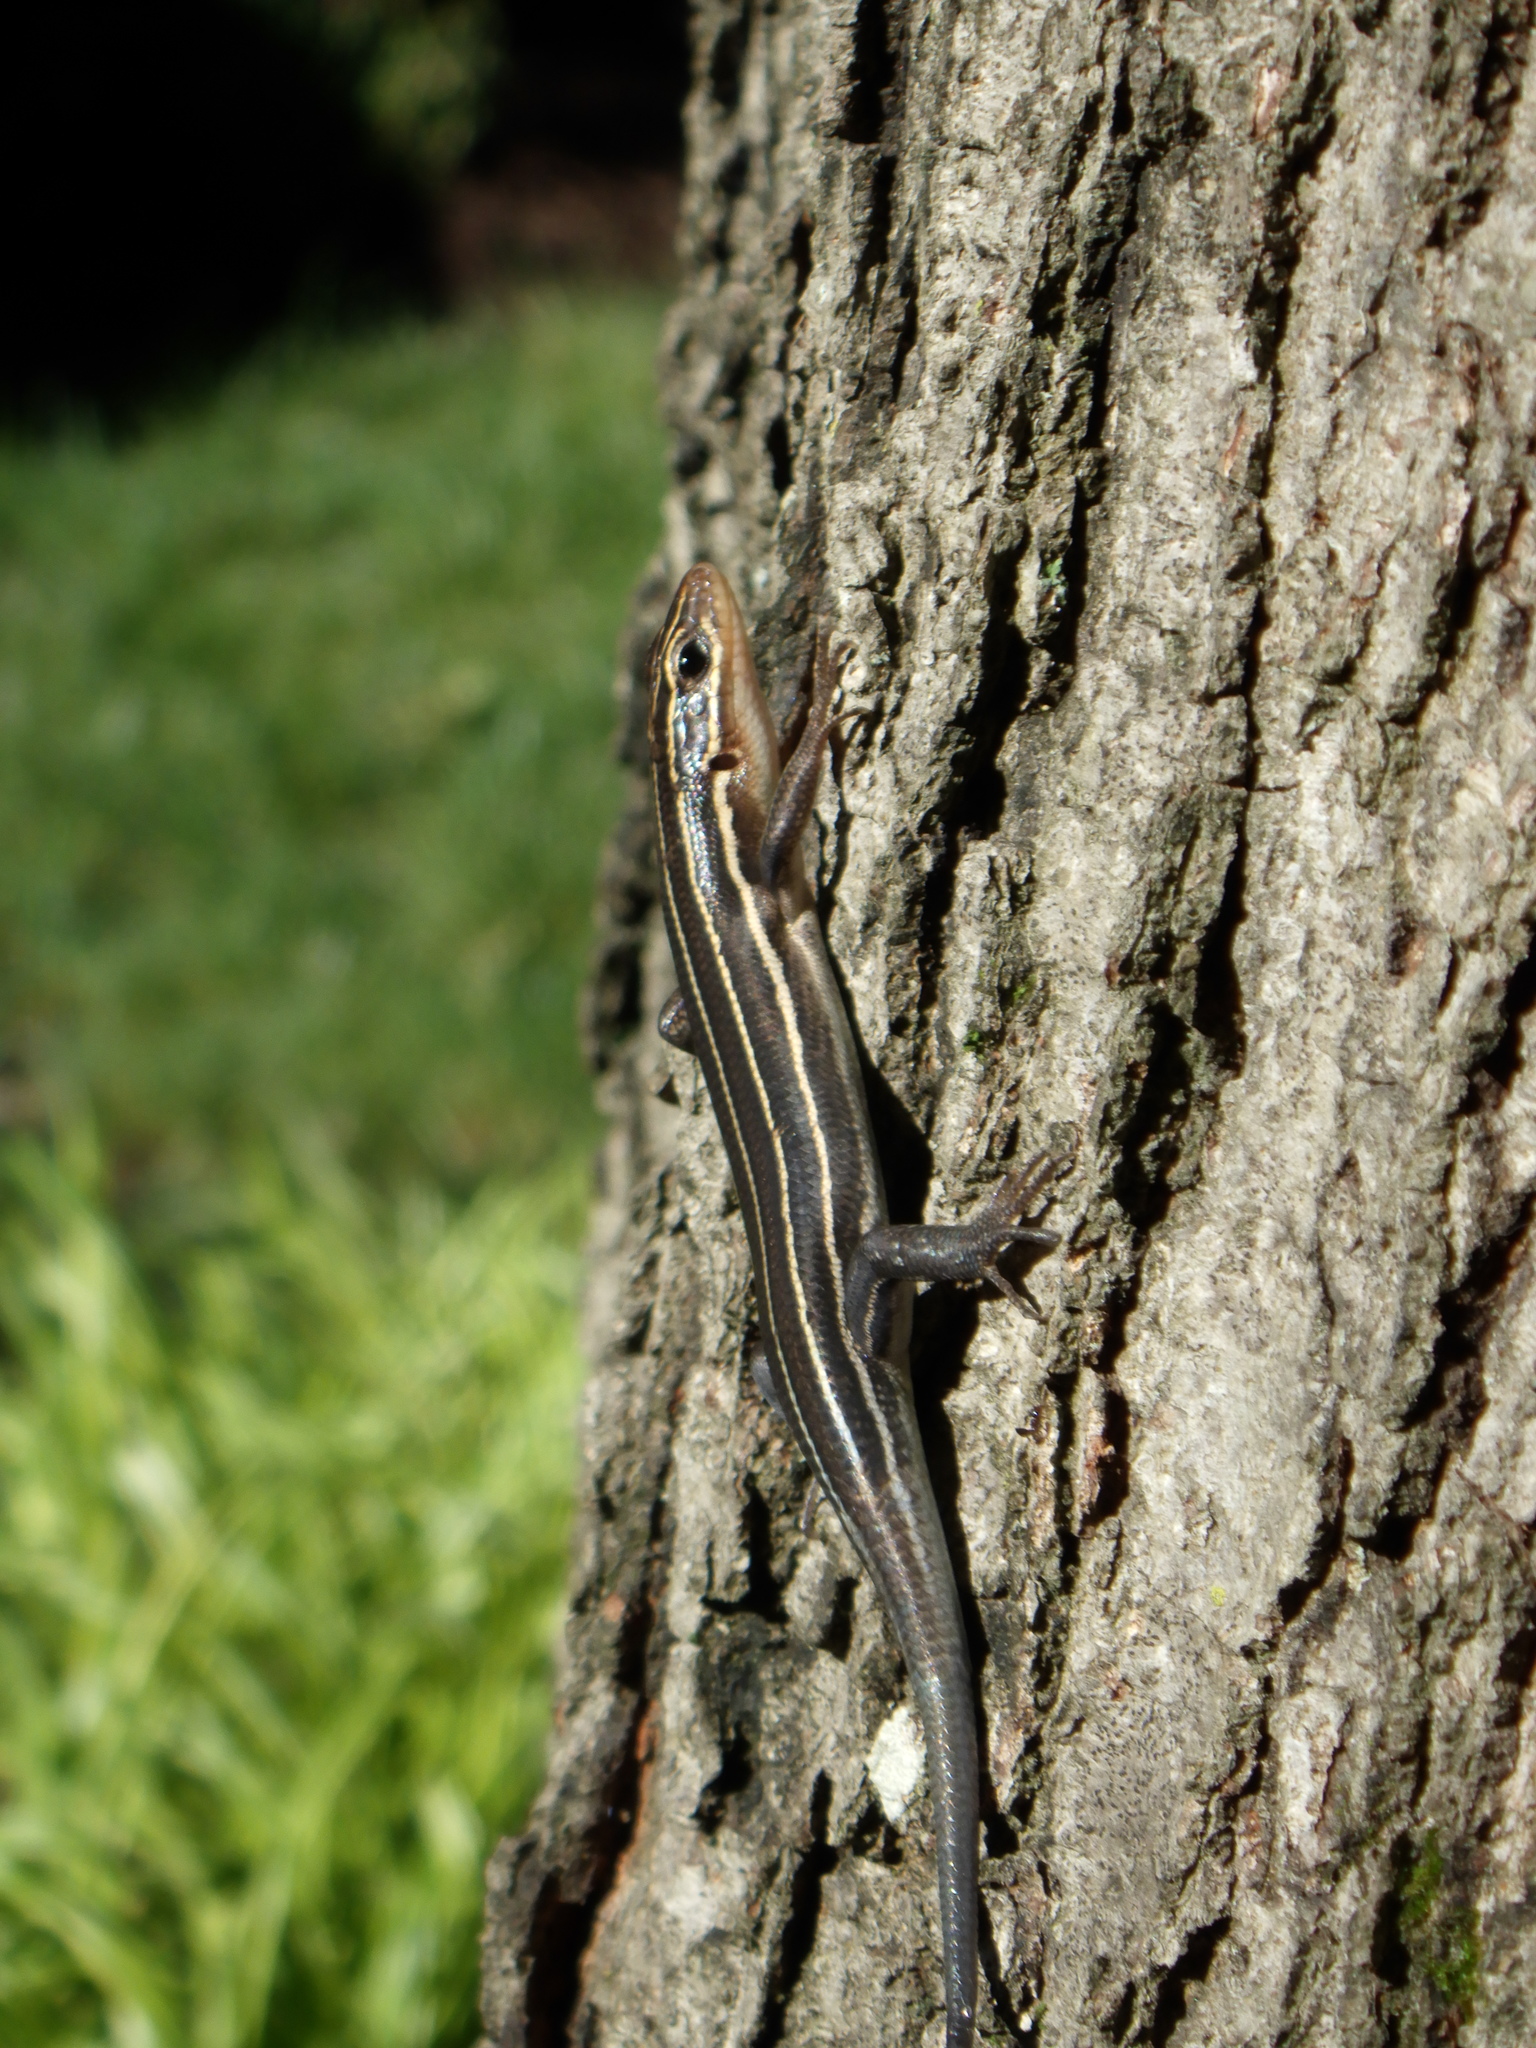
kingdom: Animalia
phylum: Chordata
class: Squamata
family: Scincidae
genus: Plestiodon
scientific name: Plestiodon laticeps
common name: Broadhead skink
